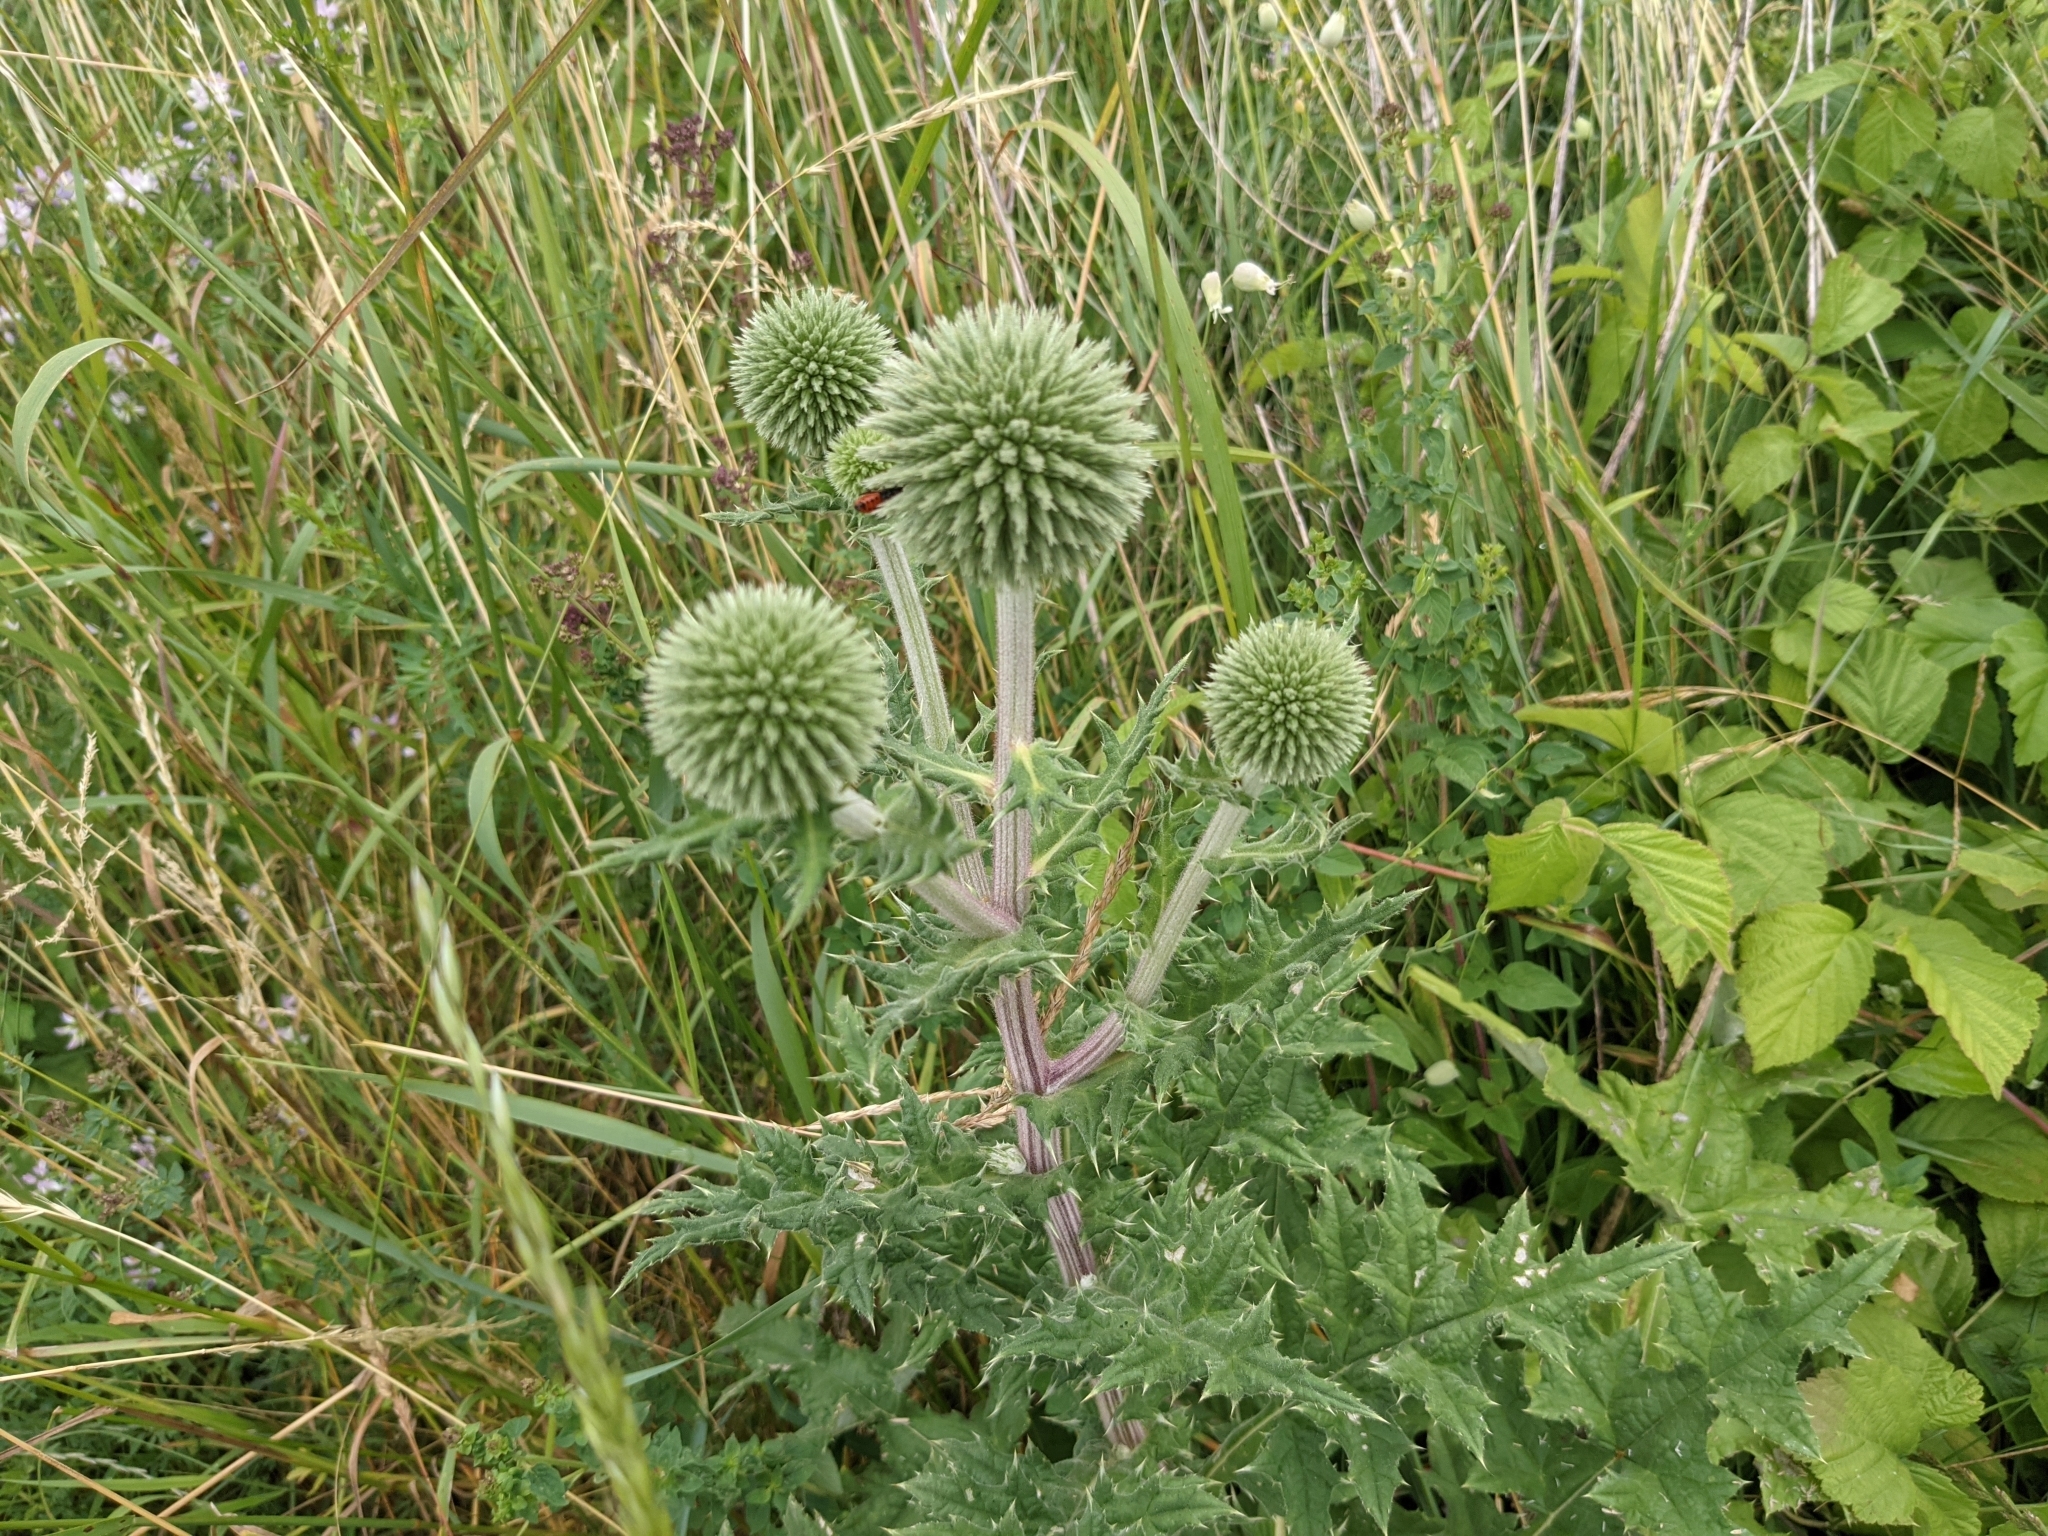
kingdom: Plantae
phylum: Tracheophyta
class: Magnoliopsida
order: Asterales
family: Asteraceae
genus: Echinops
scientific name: Echinops sphaerocephalus
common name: Glandular globe-thistle
